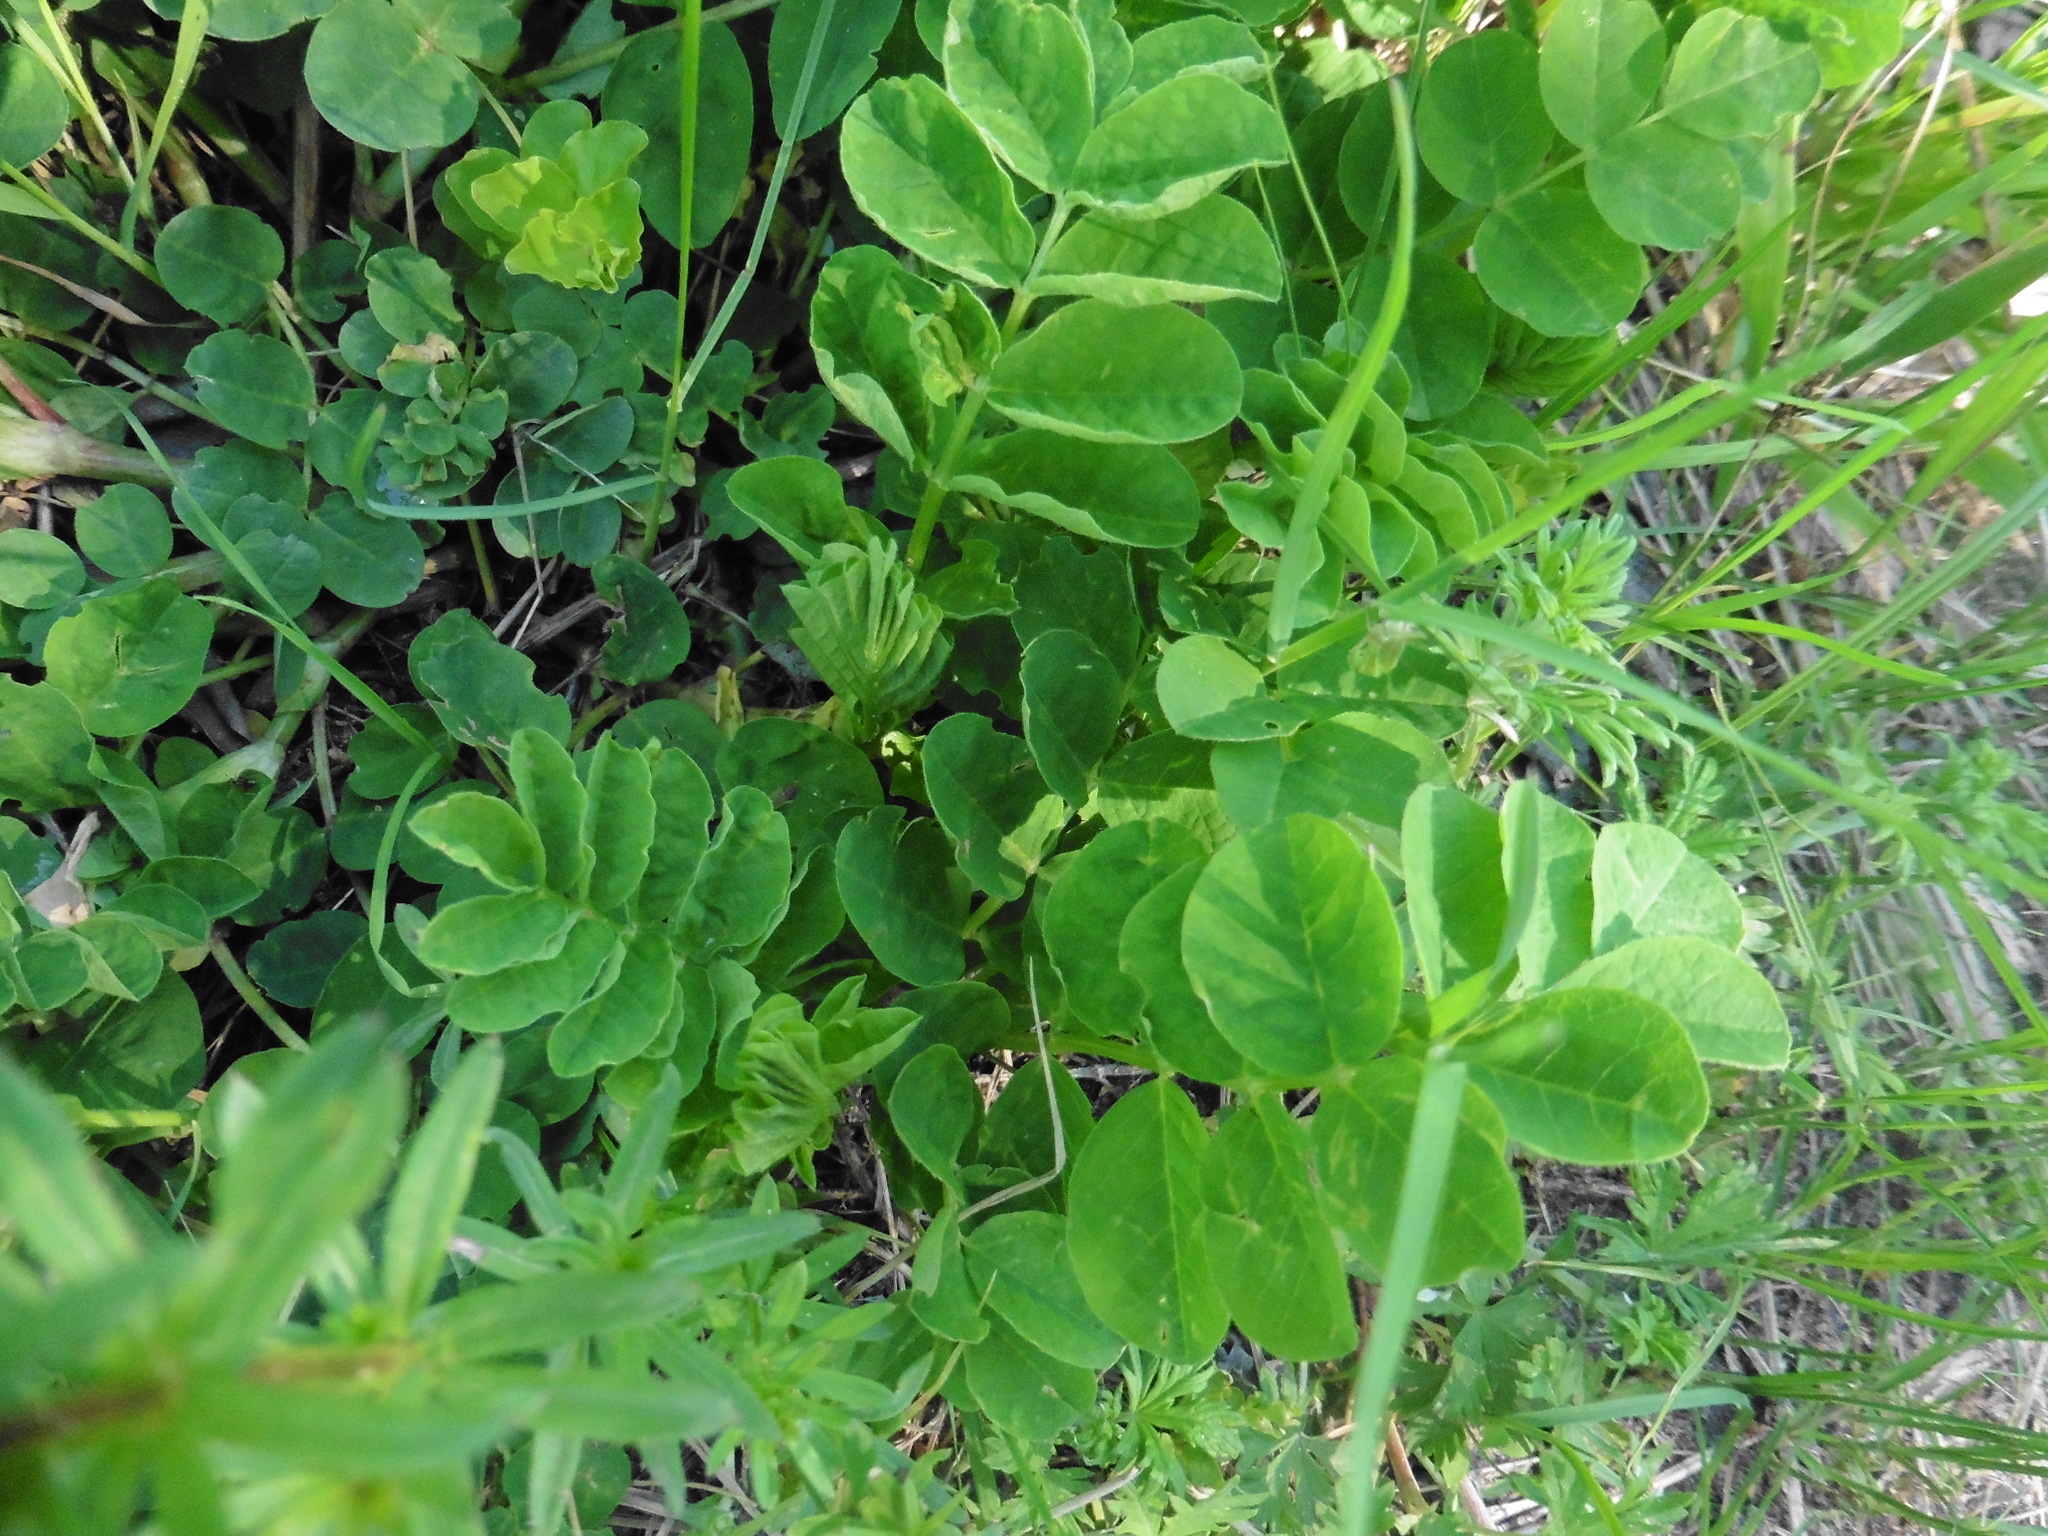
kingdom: Plantae
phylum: Tracheophyta
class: Magnoliopsida
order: Fabales
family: Fabaceae
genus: Astragalus
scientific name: Astragalus glycyphyllos
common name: Wild liquorice
